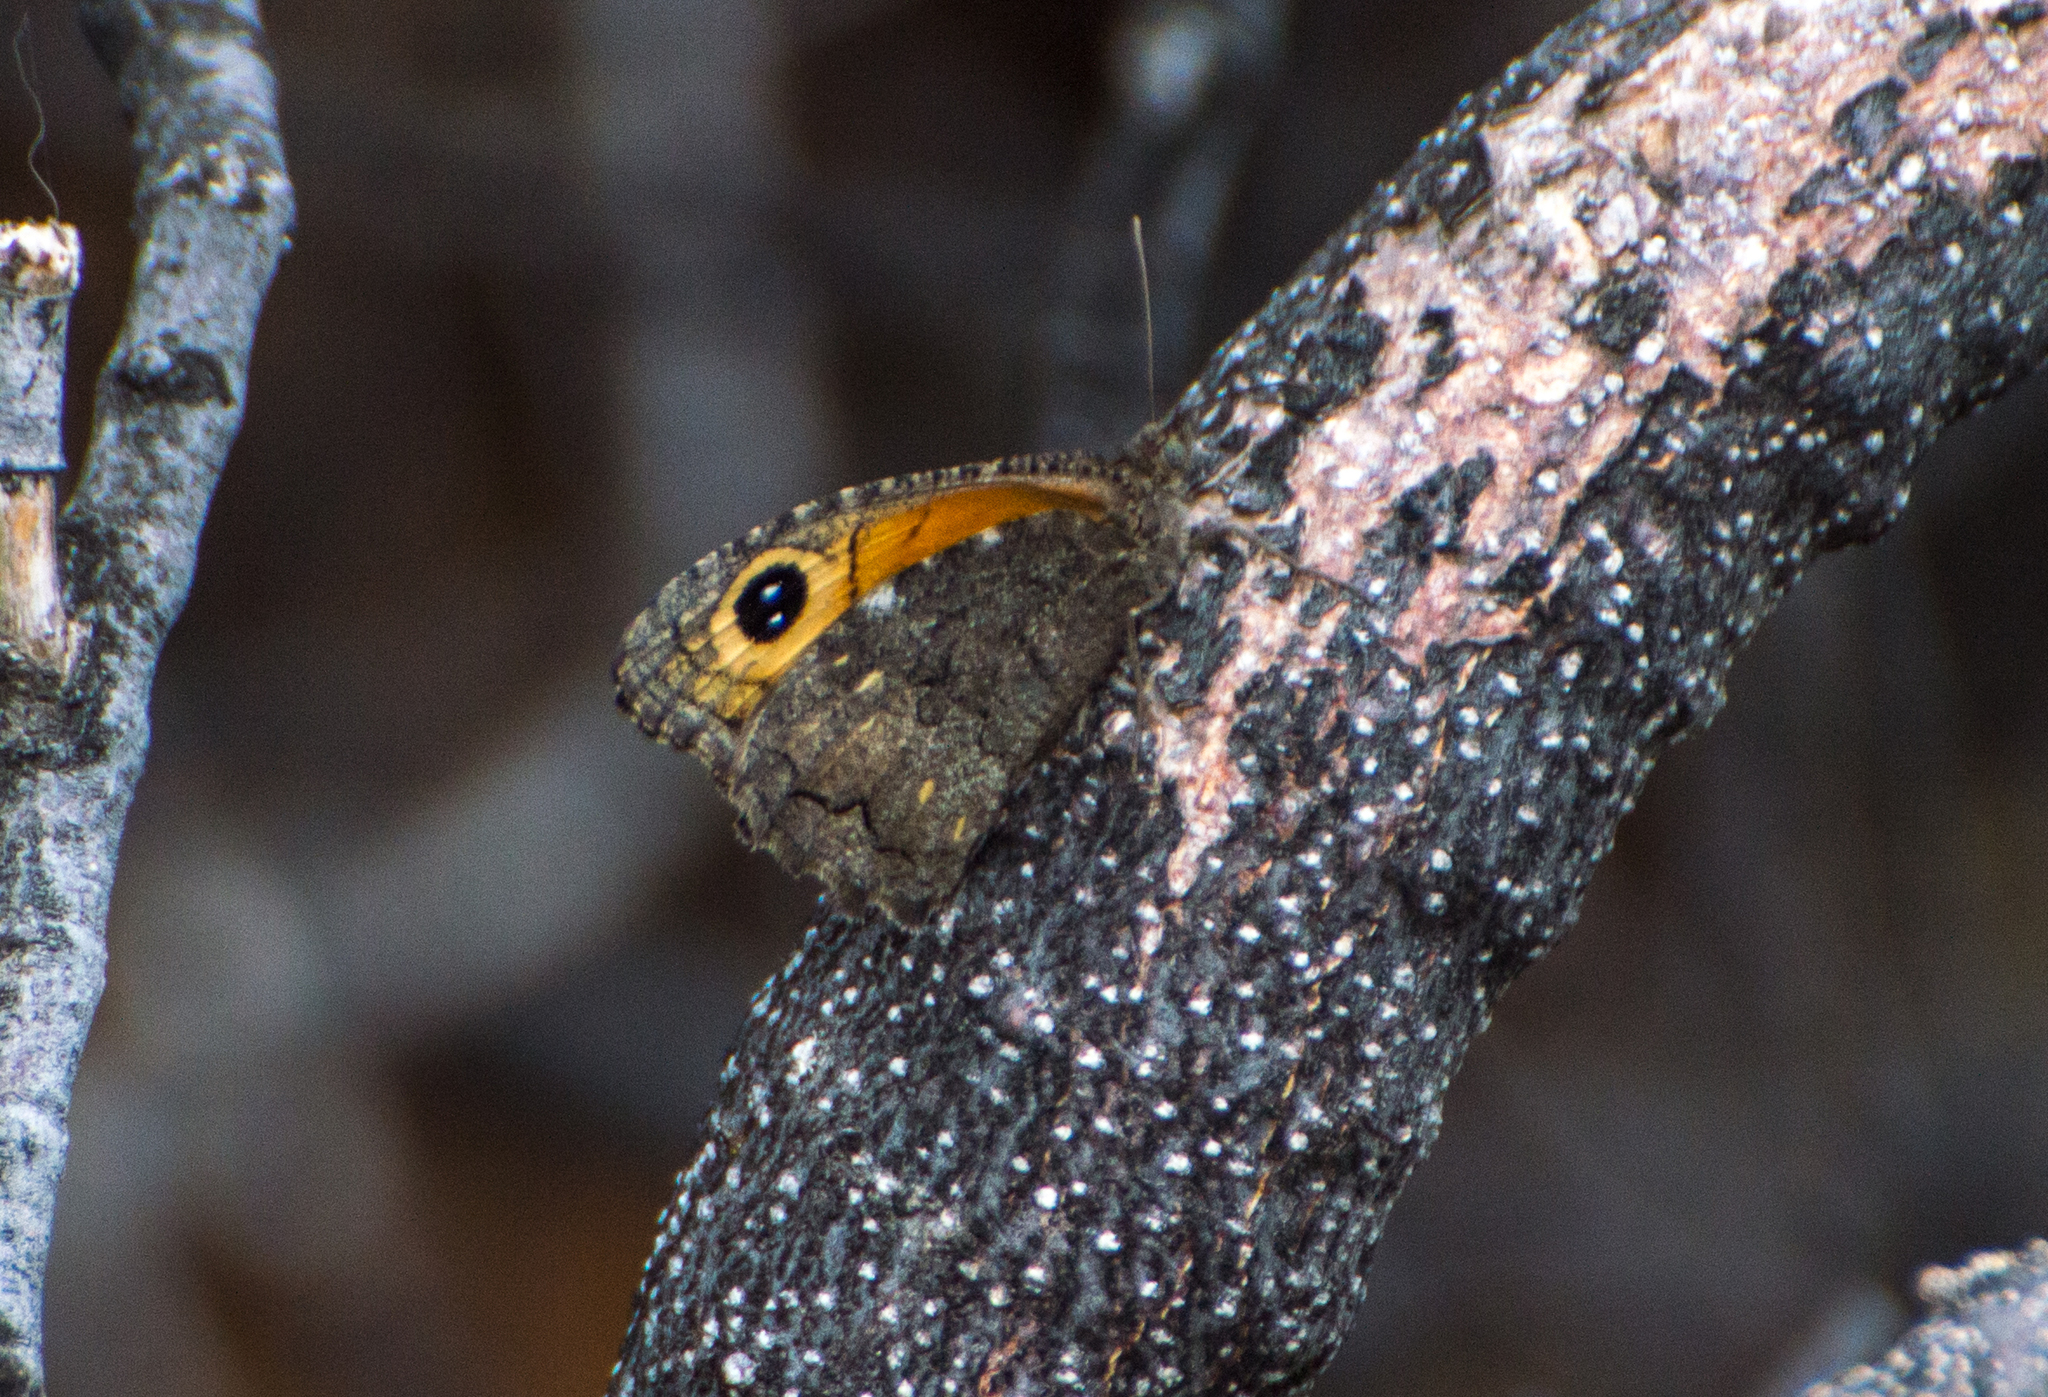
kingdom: Animalia
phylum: Arthropoda
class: Insecta
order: Lepidoptera
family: Nymphalidae
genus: Haywardella
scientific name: Haywardella edmondsii
